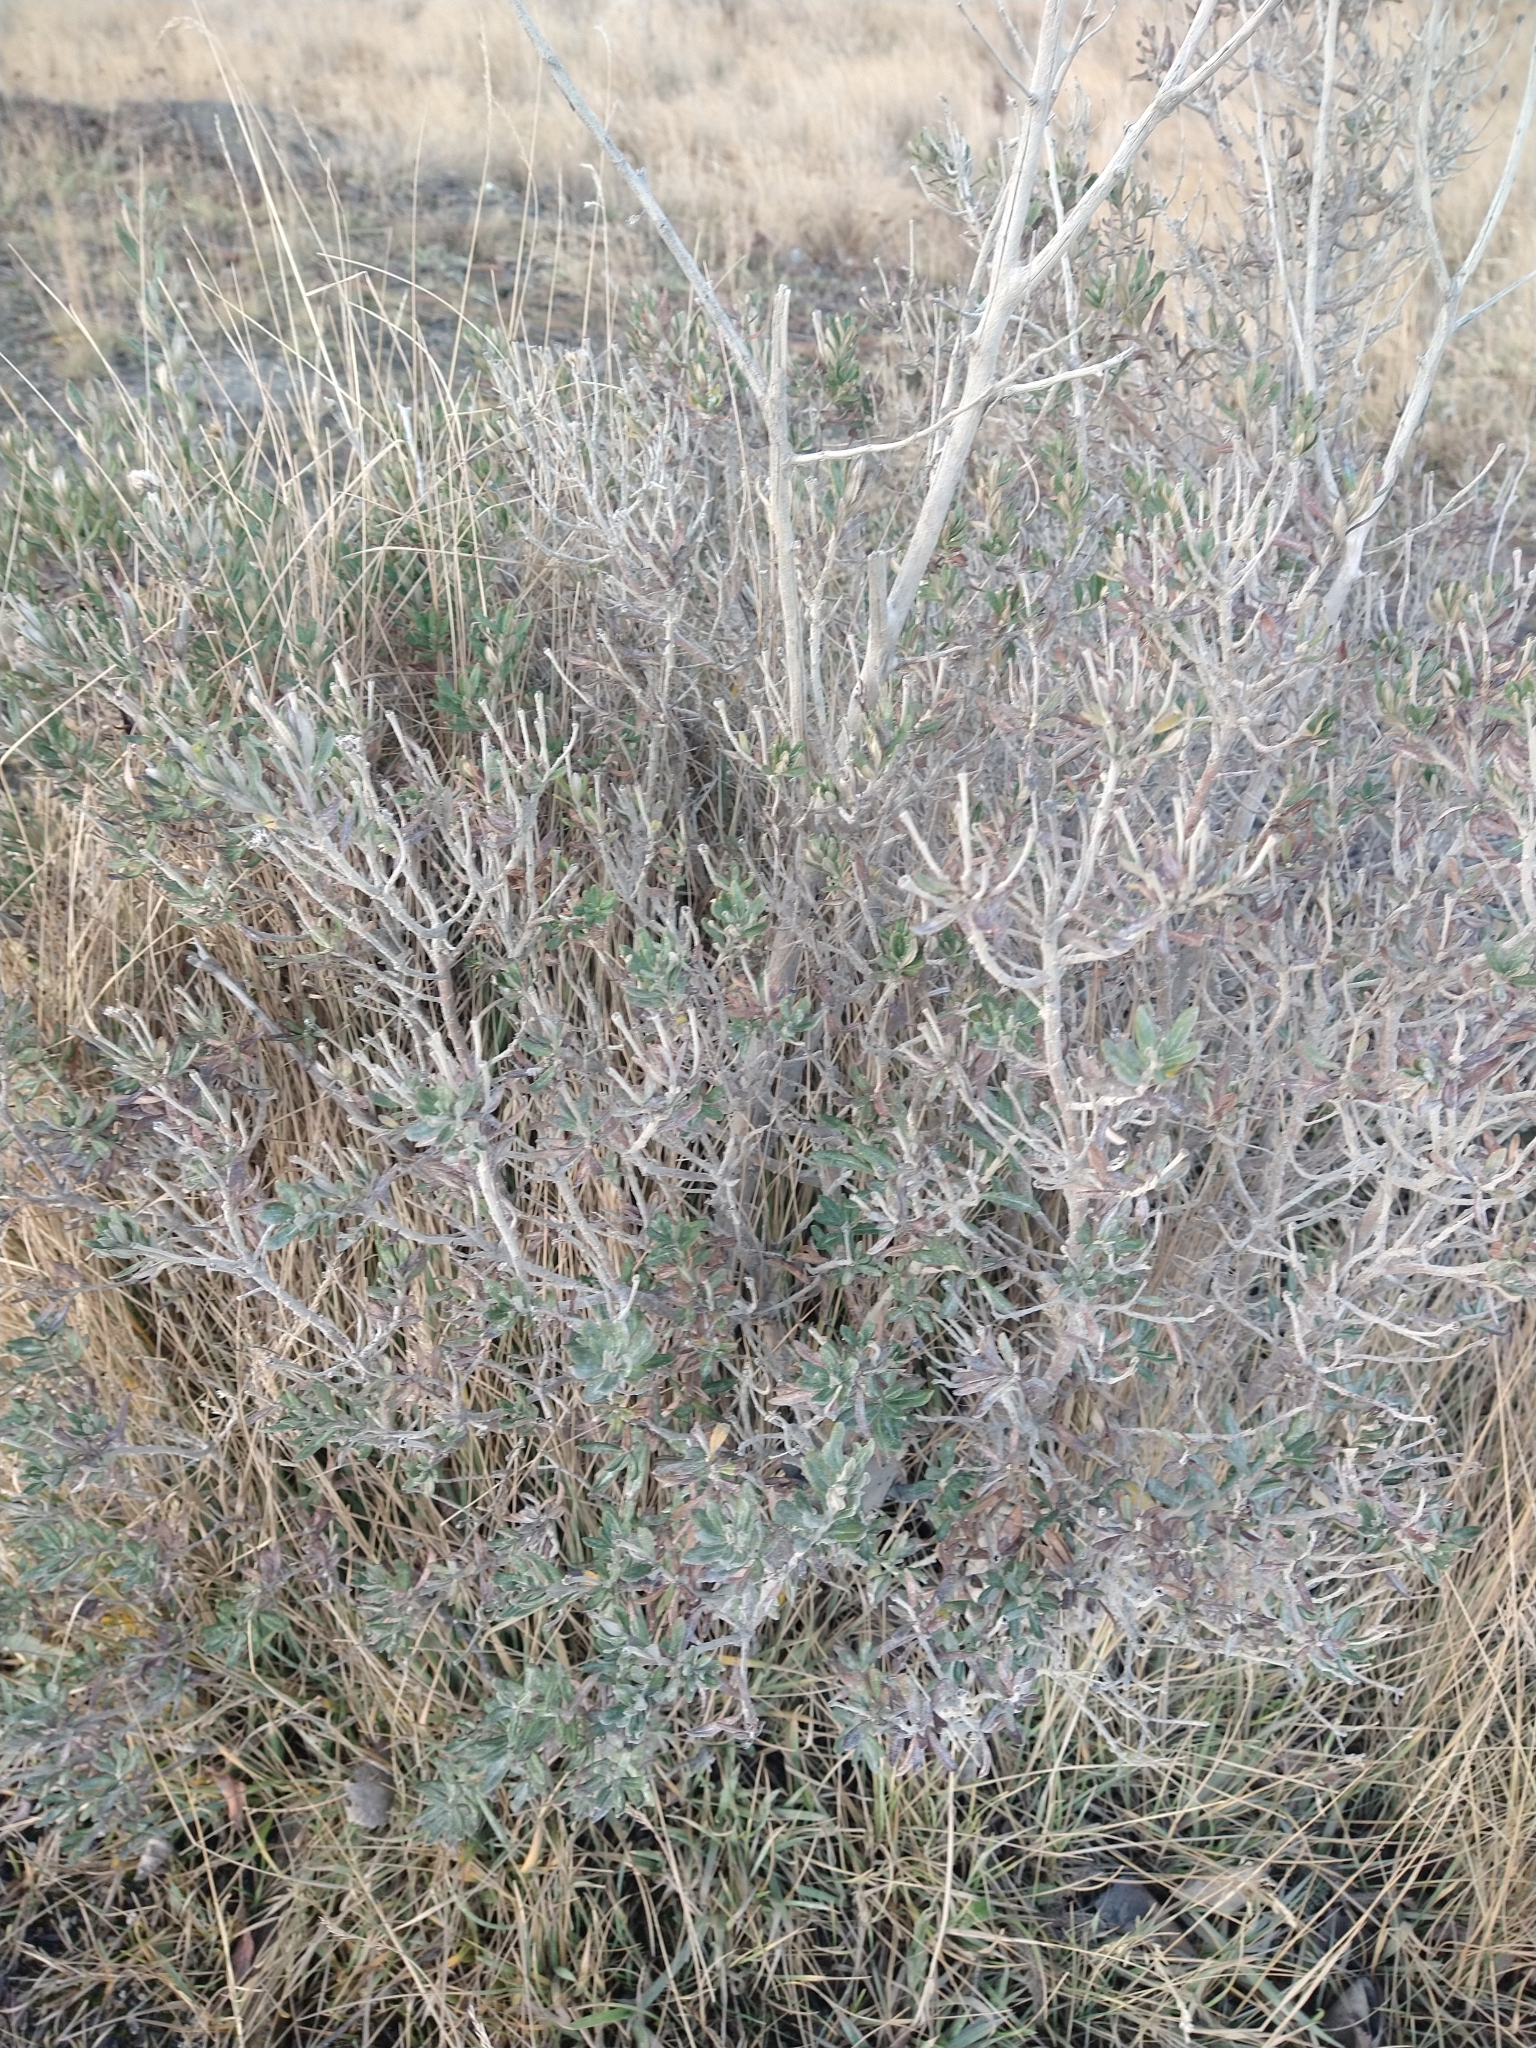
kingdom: Plantae
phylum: Tracheophyta
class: Magnoliopsida
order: Asterales
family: Asteraceae
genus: Chiliotrichum
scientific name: Chiliotrichum diffusum
